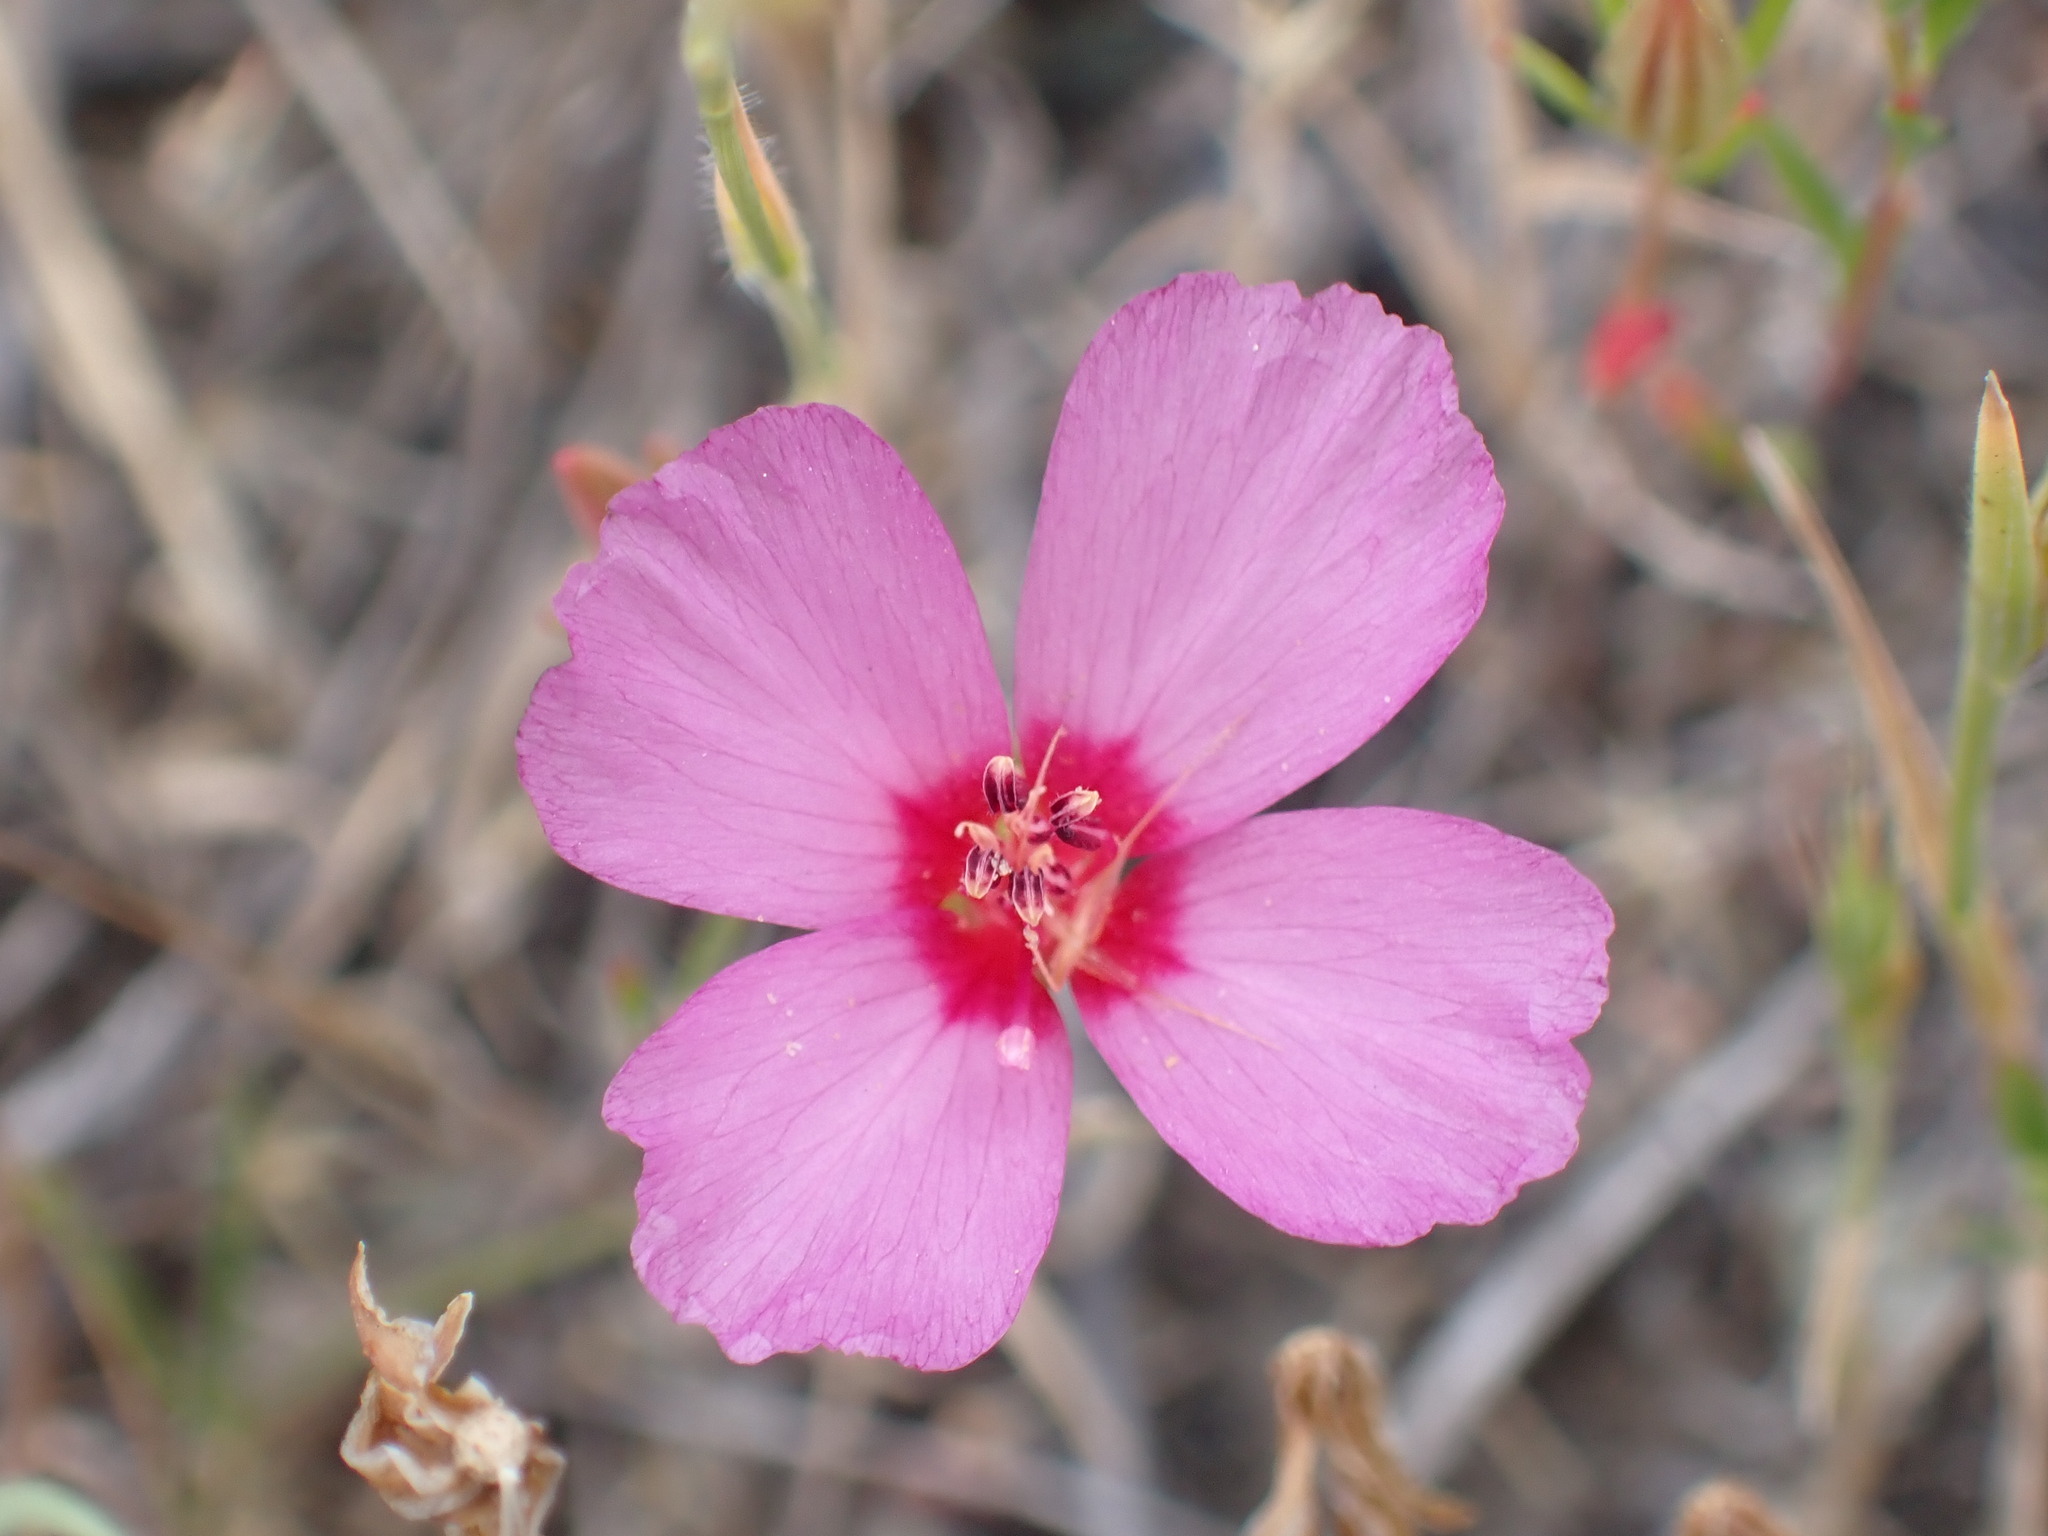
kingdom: Plantae
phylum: Tracheophyta
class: Magnoliopsida
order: Myrtales
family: Onagraceae
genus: Clarkia
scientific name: Clarkia rubicunda
